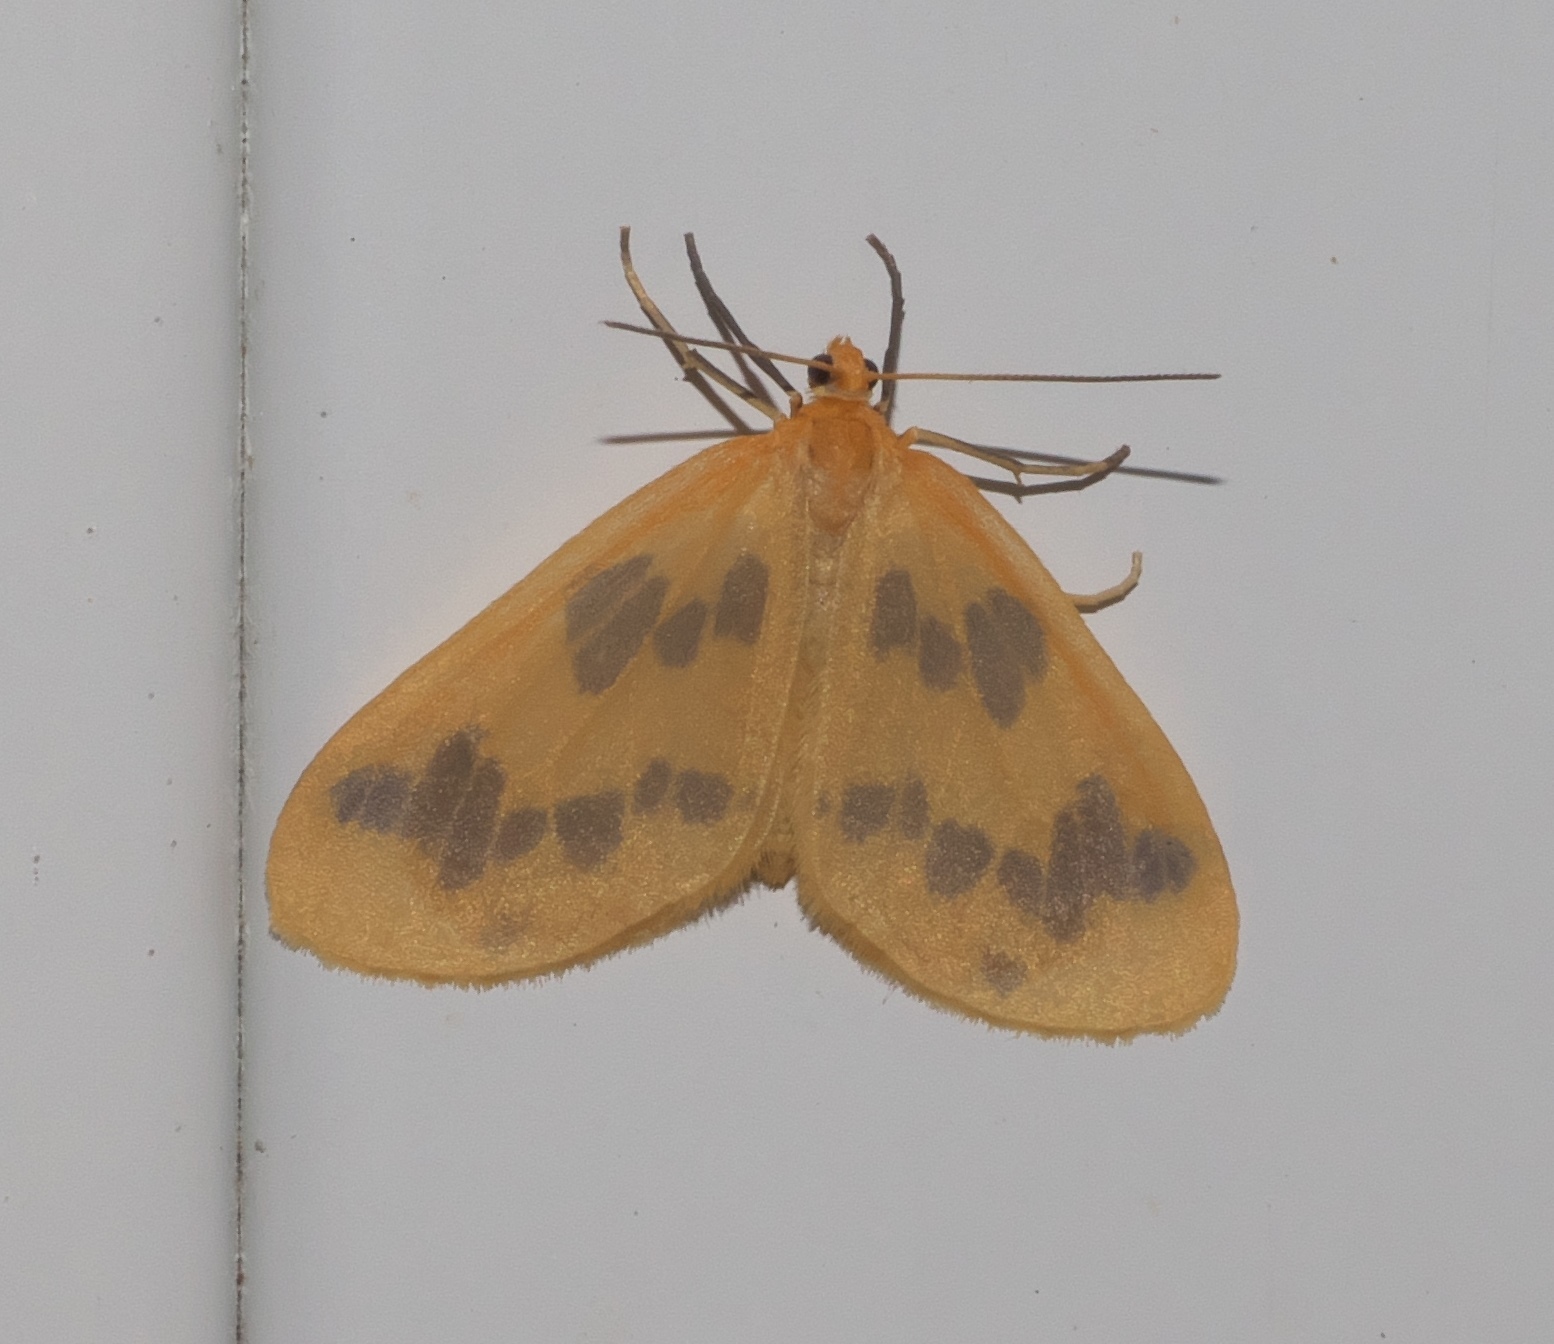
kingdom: Animalia
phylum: Arthropoda
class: Insecta
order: Lepidoptera
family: Geometridae
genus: Eubaphe
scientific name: Eubaphe mendica
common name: Beggar
